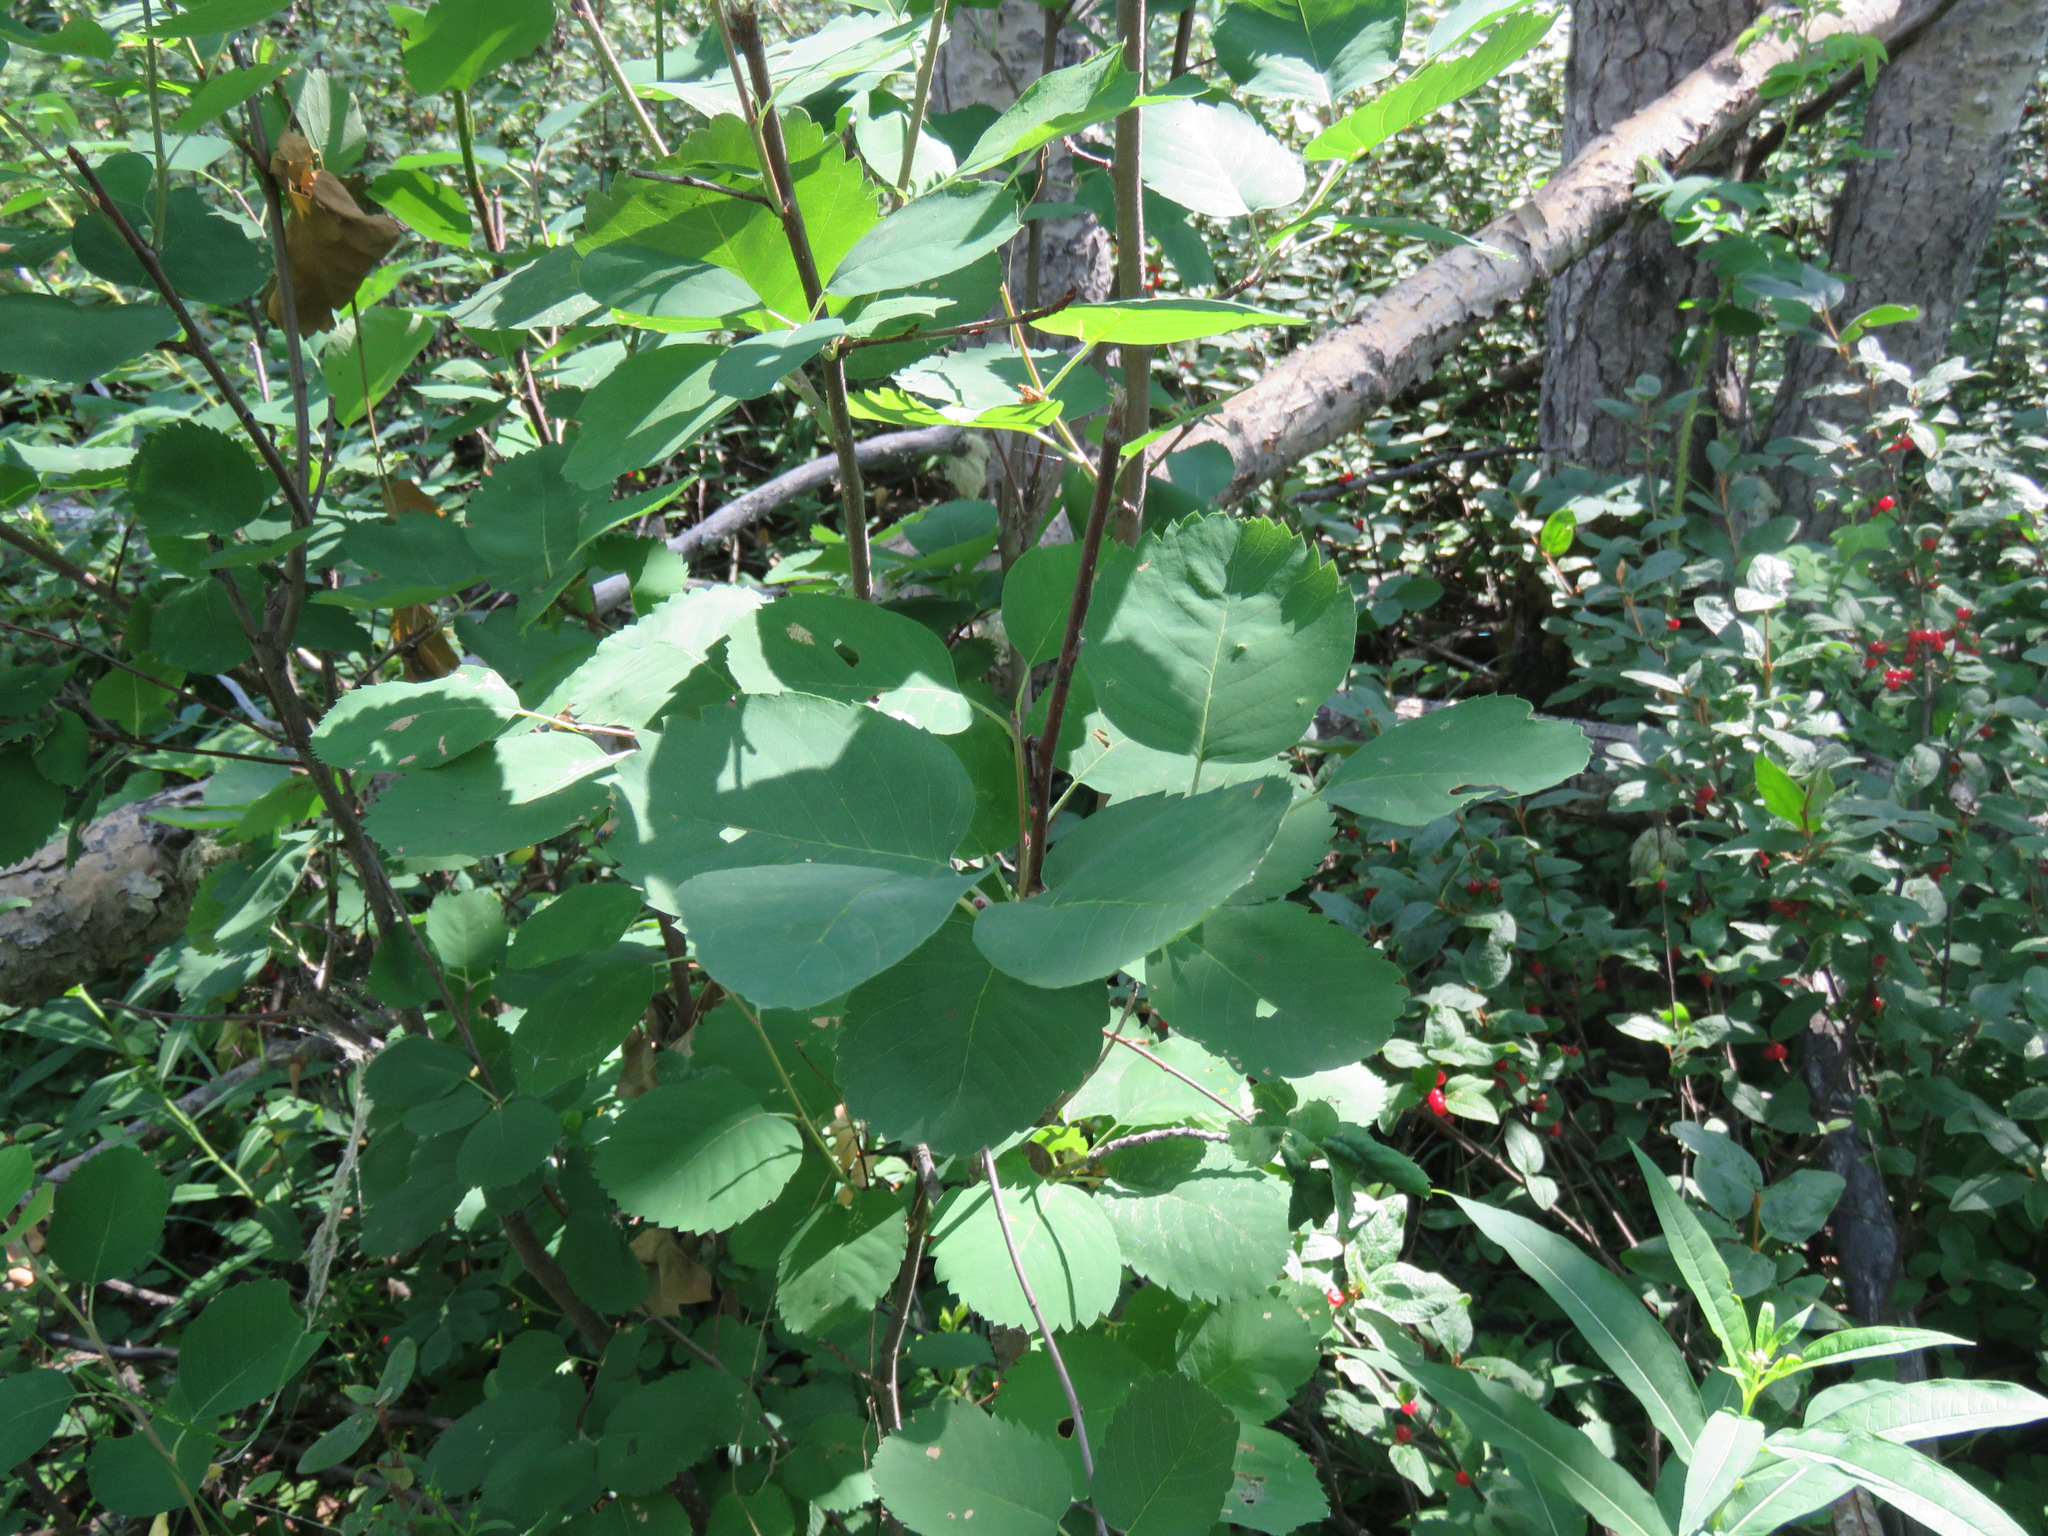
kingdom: Plantae
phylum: Tracheophyta
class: Magnoliopsida
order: Rosales
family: Rosaceae
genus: Amelanchier
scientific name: Amelanchier alnifolia
